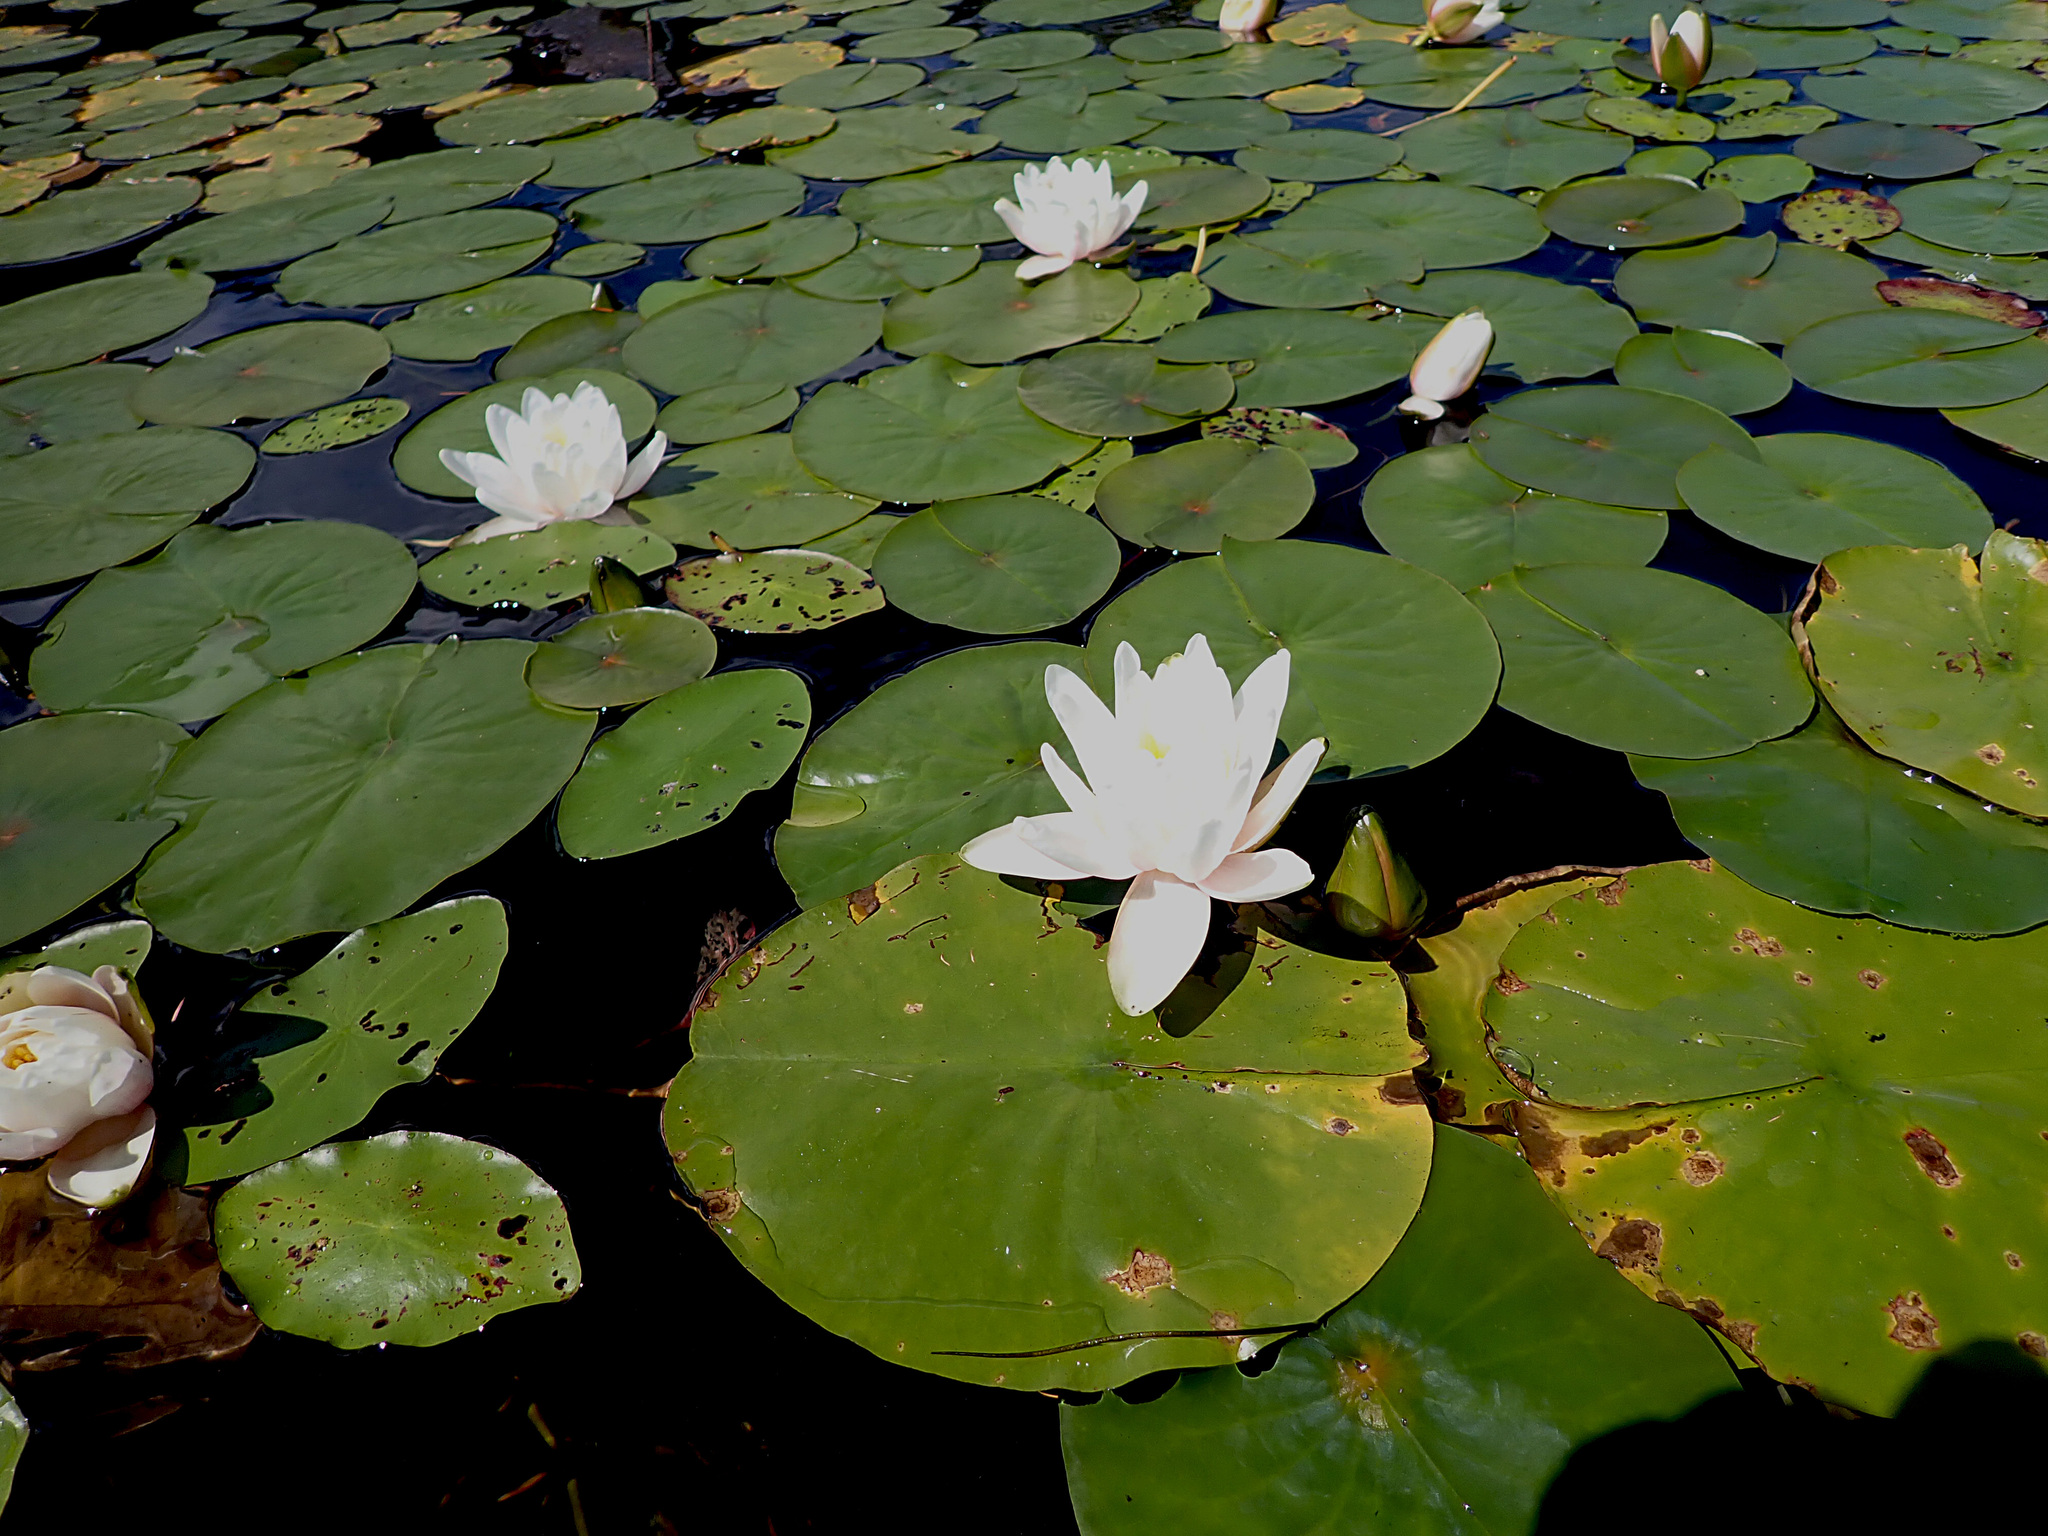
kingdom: Plantae
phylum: Tracheophyta
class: Magnoliopsida
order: Nymphaeales
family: Nymphaeaceae
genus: Nymphaea
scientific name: Nymphaea odorata
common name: Fragrant water-lily
